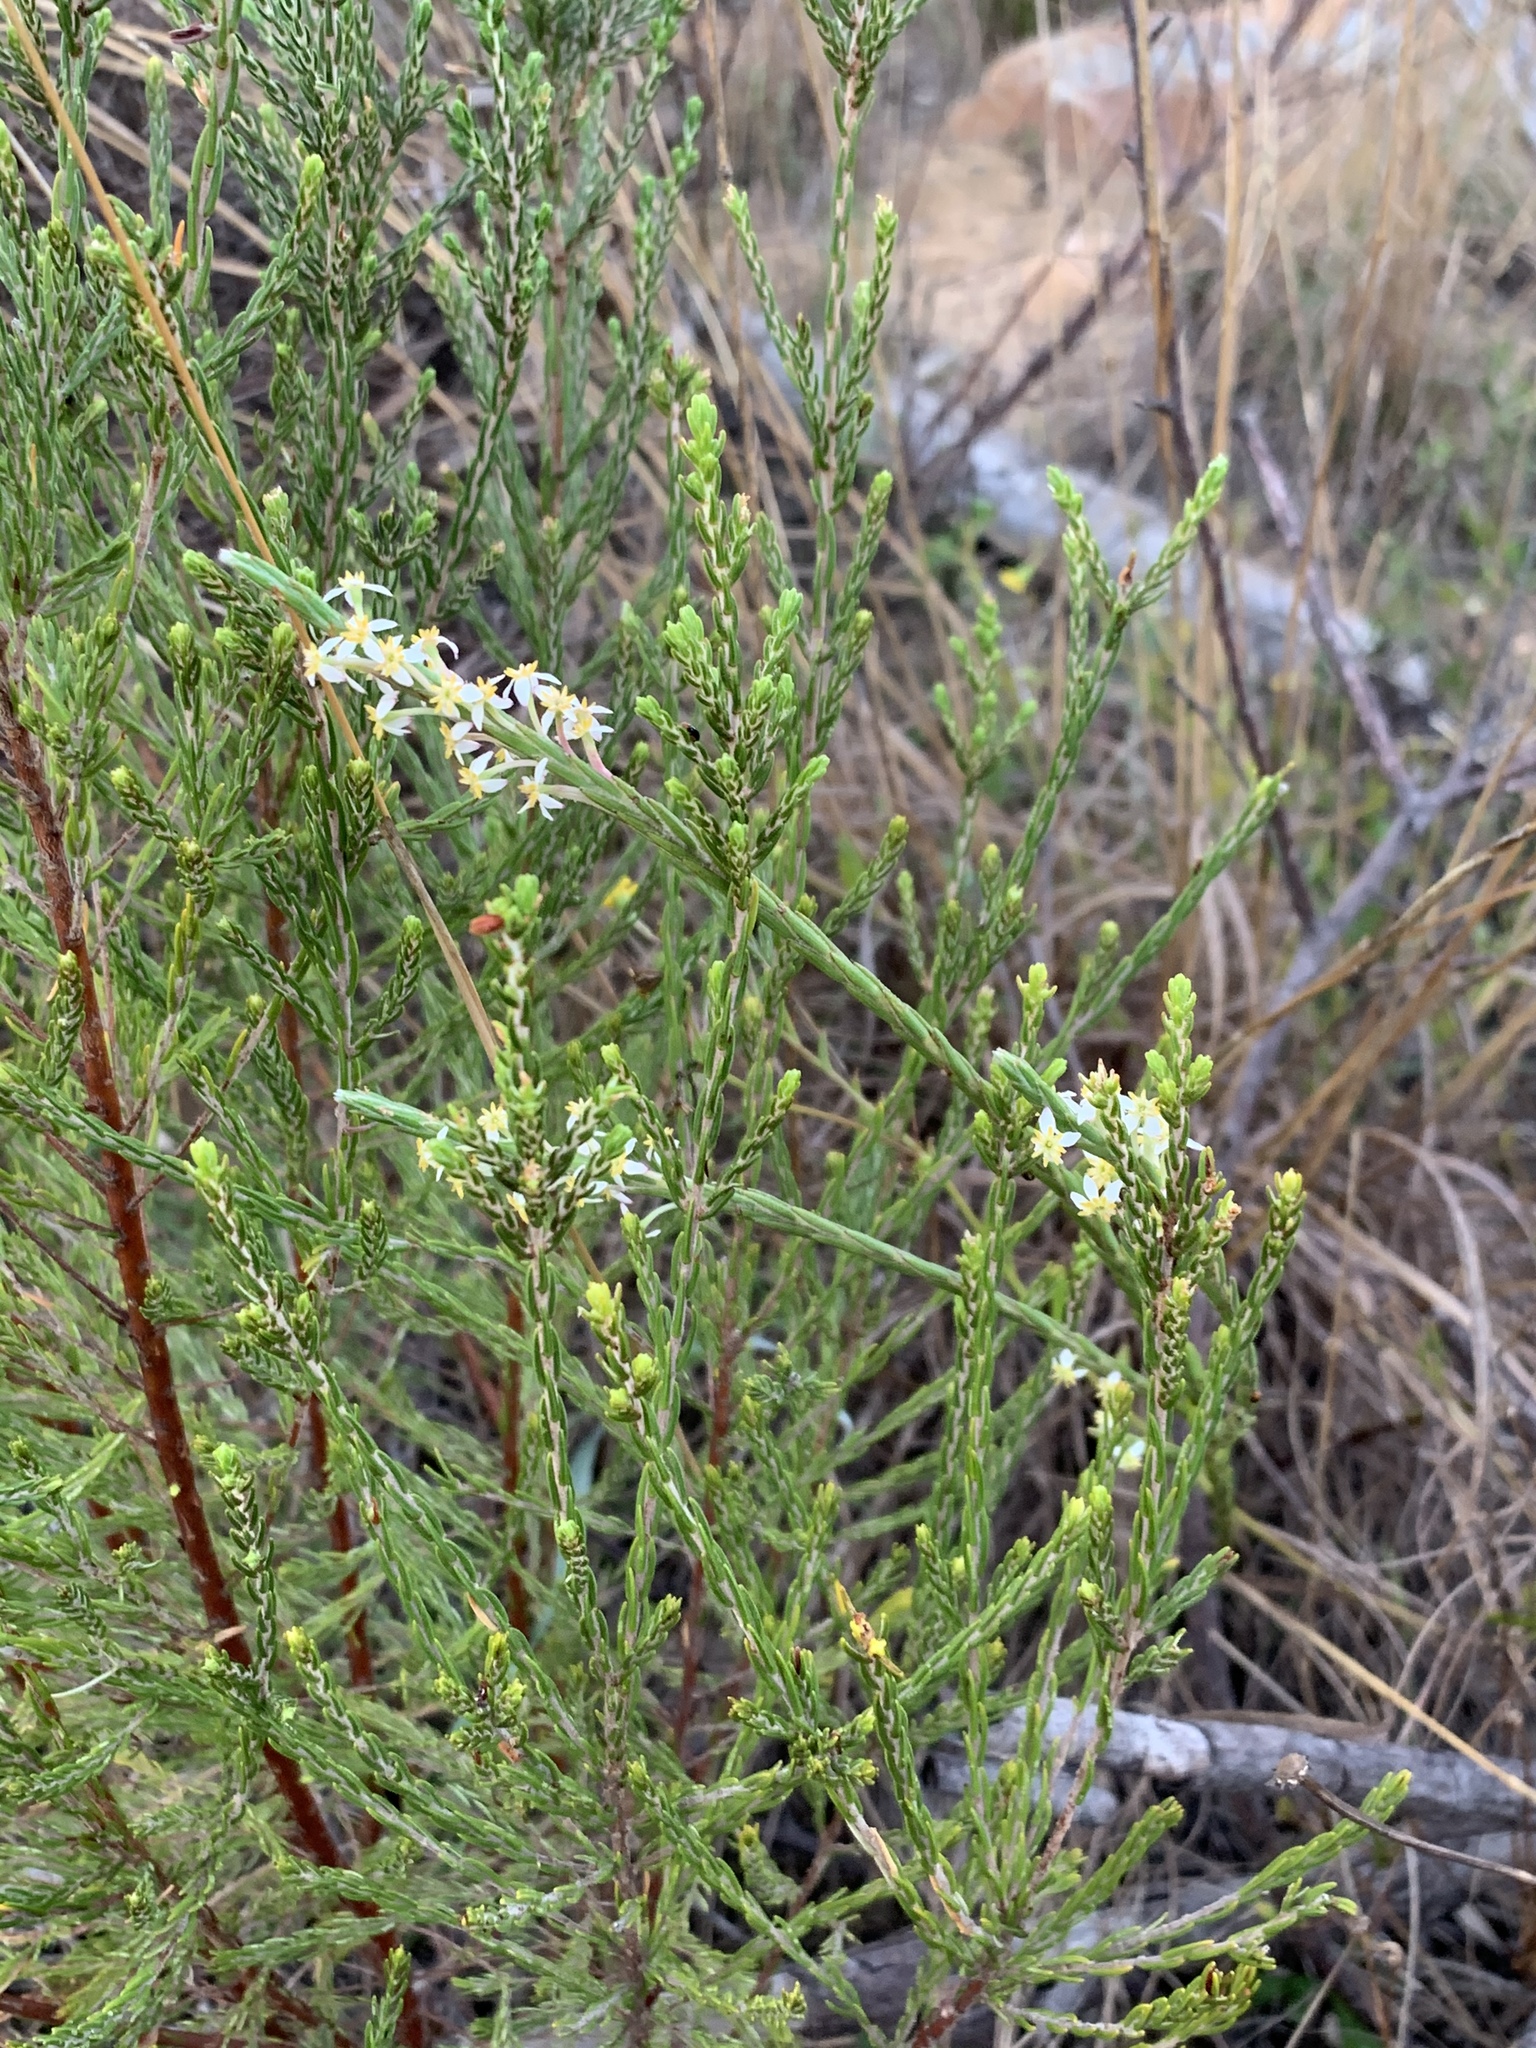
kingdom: Plantae
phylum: Tracheophyta
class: Magnoliopsida
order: Malvales
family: Thymelaeaceae
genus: Struthiola
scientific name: Struthiola ciliata
